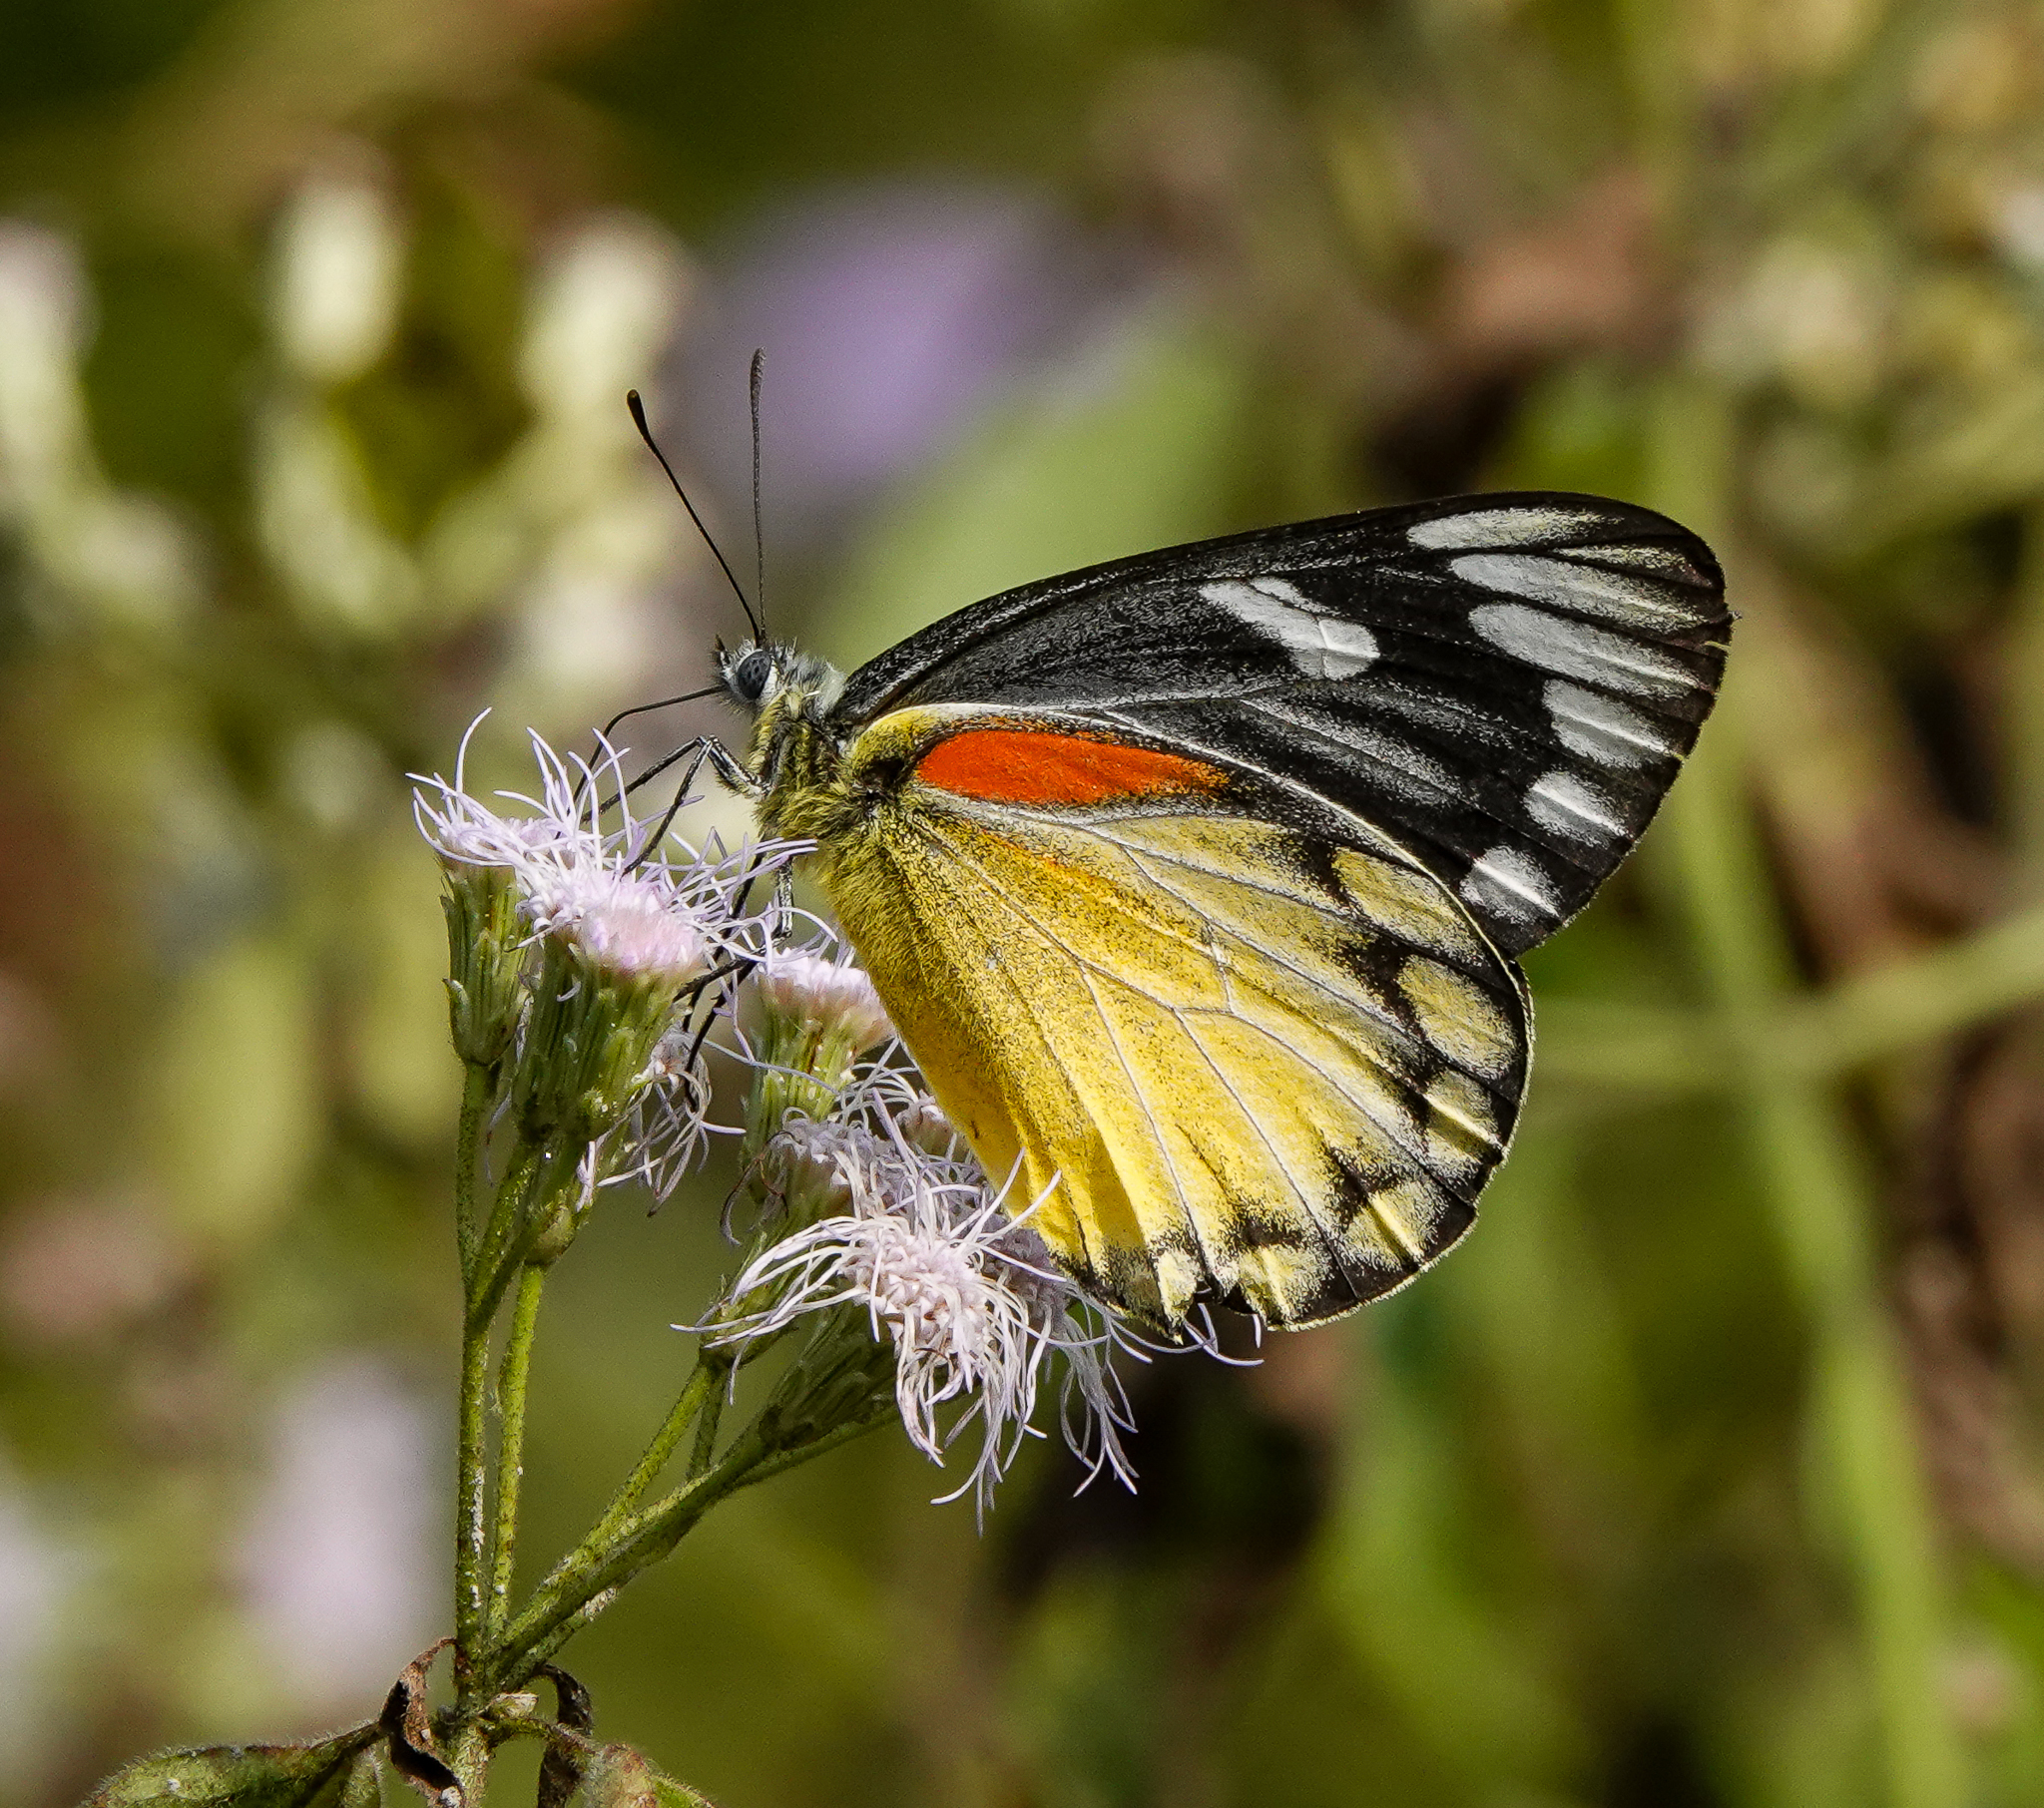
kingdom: Animalia
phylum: Arthropoda
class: Insecta
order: Lepidoptera
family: Pieridae
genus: Delias
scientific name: Delias descombesi
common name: Red-spot jezebel
